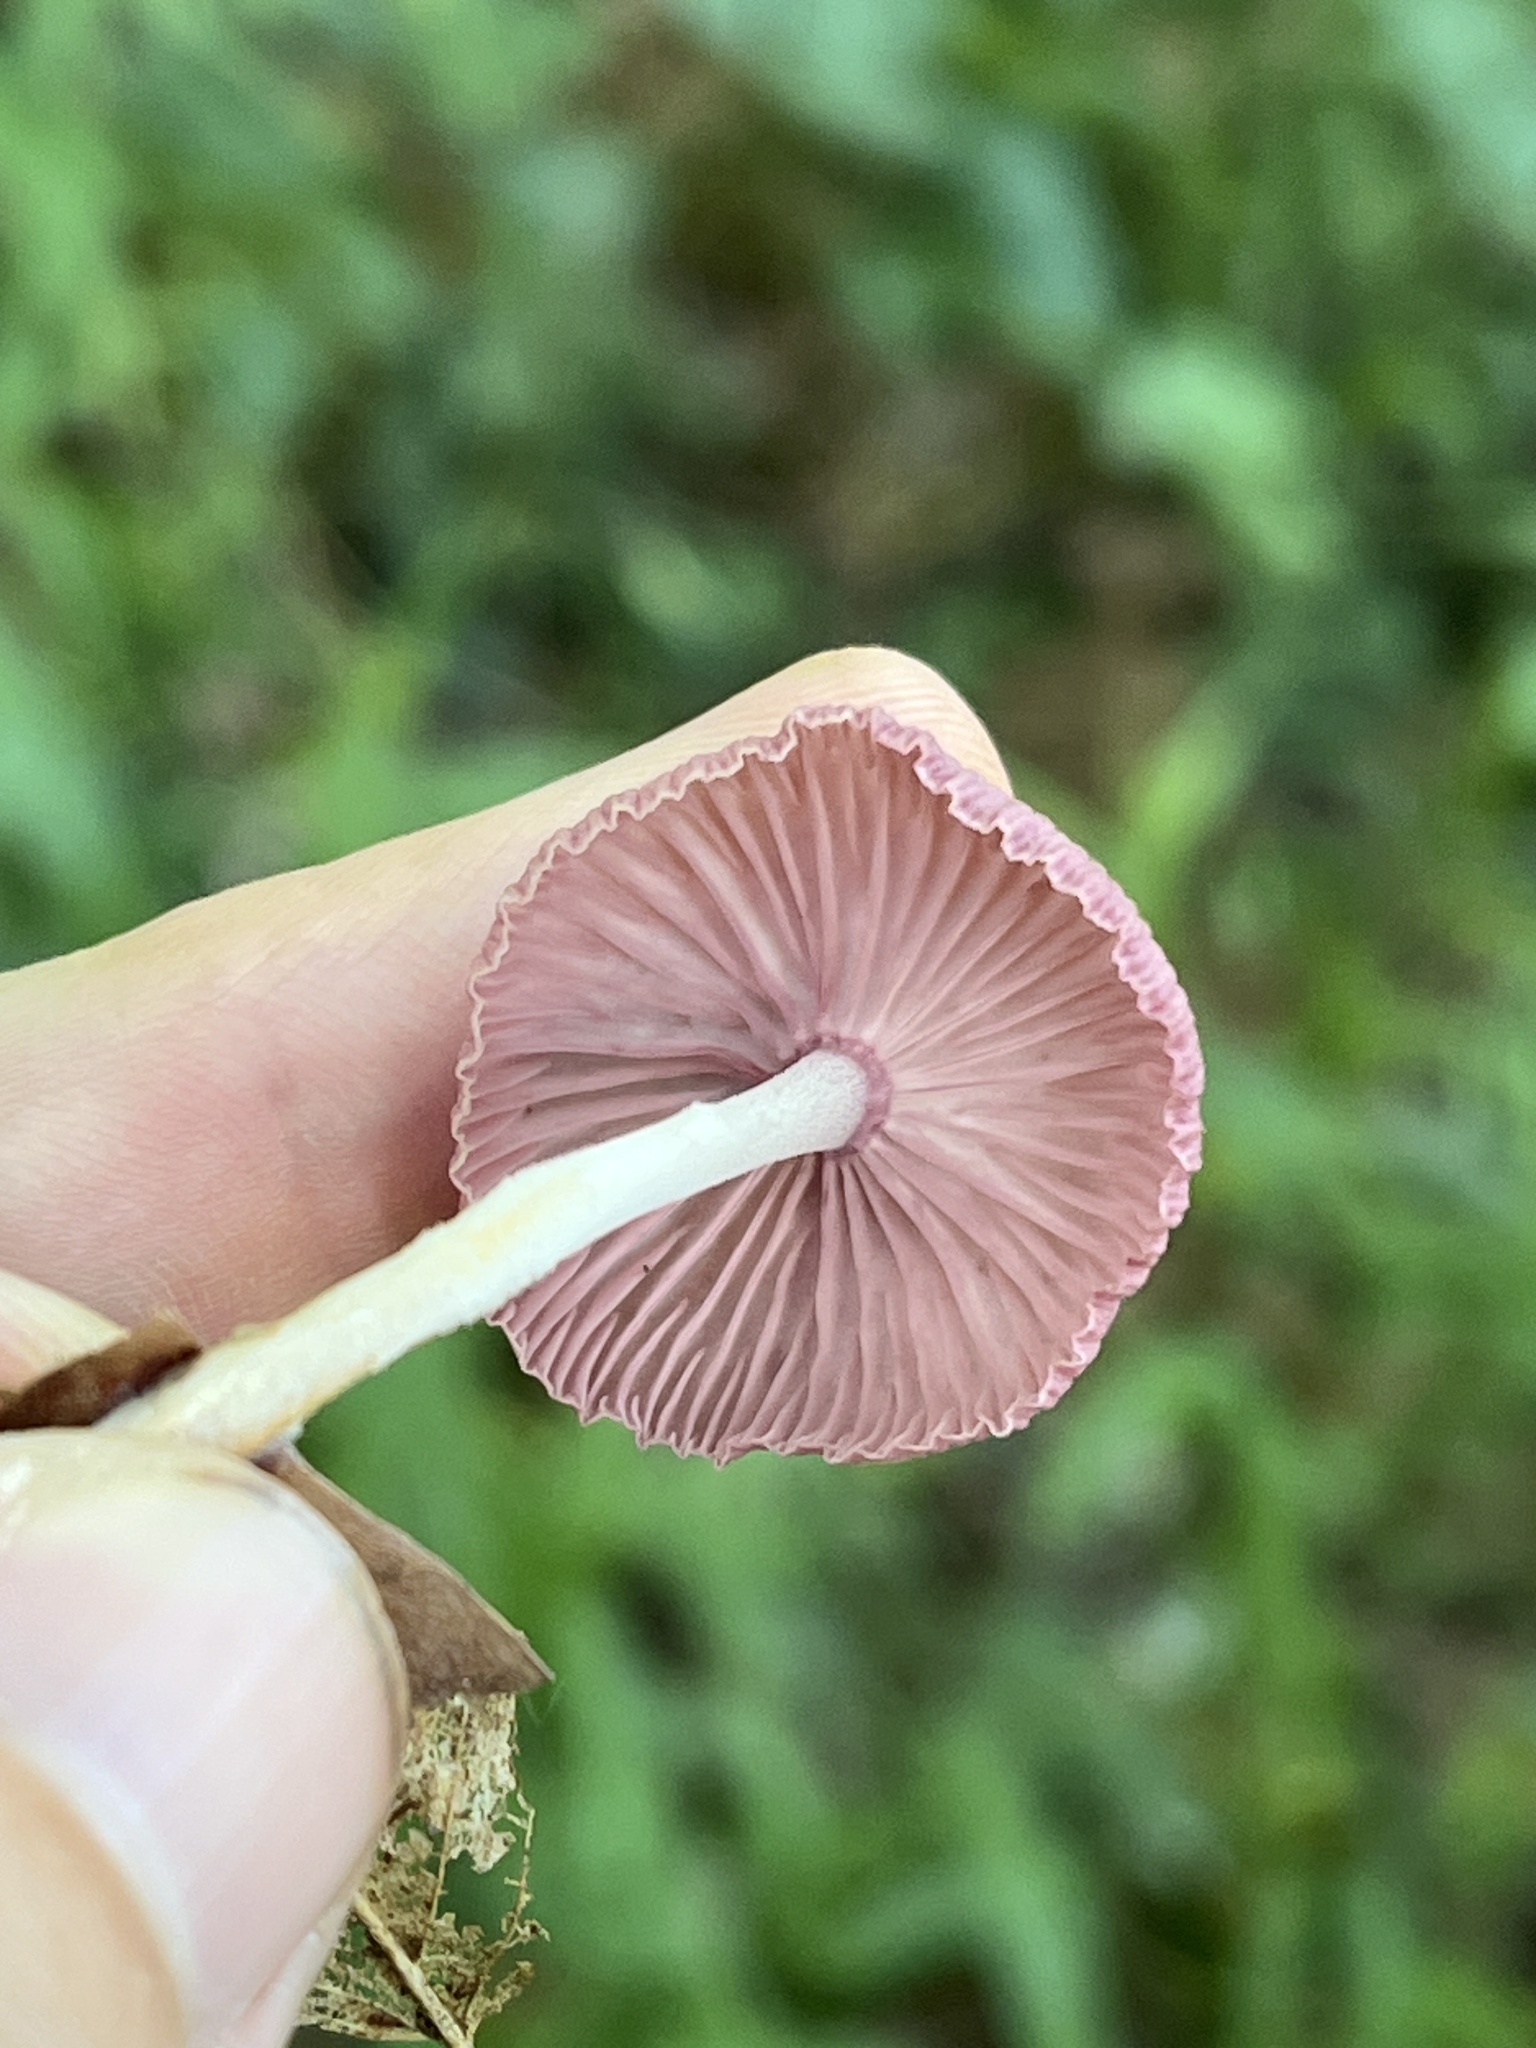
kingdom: Fungi
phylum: Basidiomycota
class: Agaricomycetes
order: Agaricales
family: Omphalotaceae
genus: Gymnopus
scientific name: Gymnopus iocephalus
